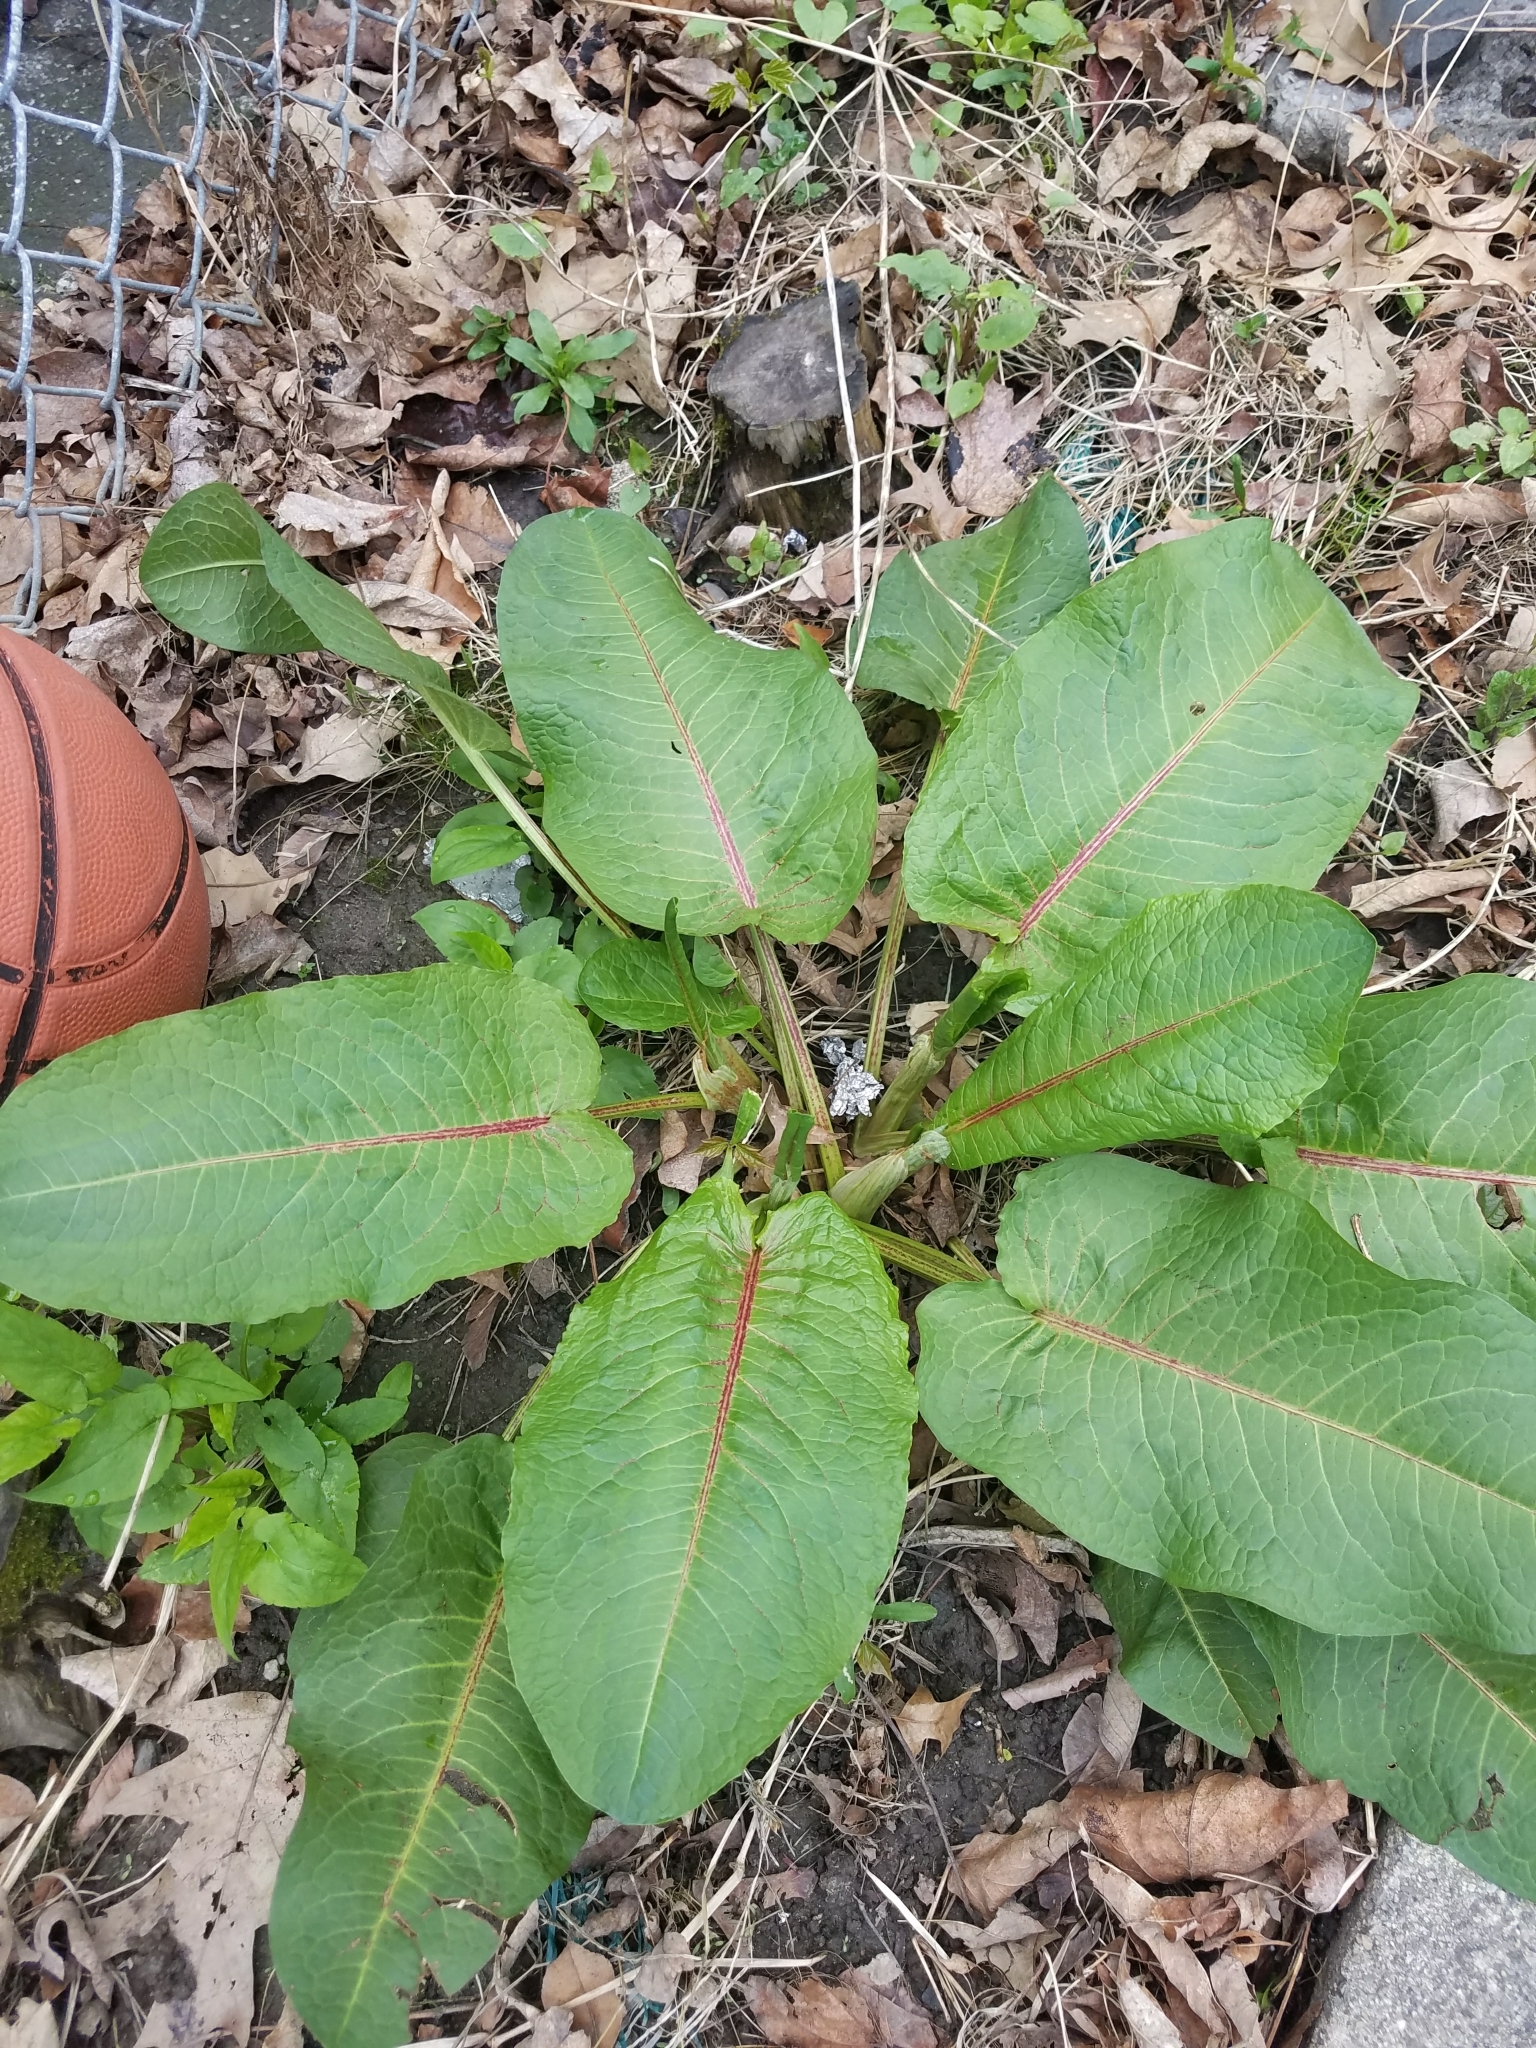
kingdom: Plantae
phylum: Tracheophyta
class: Magnoliopsida
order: Caryophyllales
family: Polygonaceae
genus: Rumex
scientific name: Rumex obtusifolius
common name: Bitter dock
